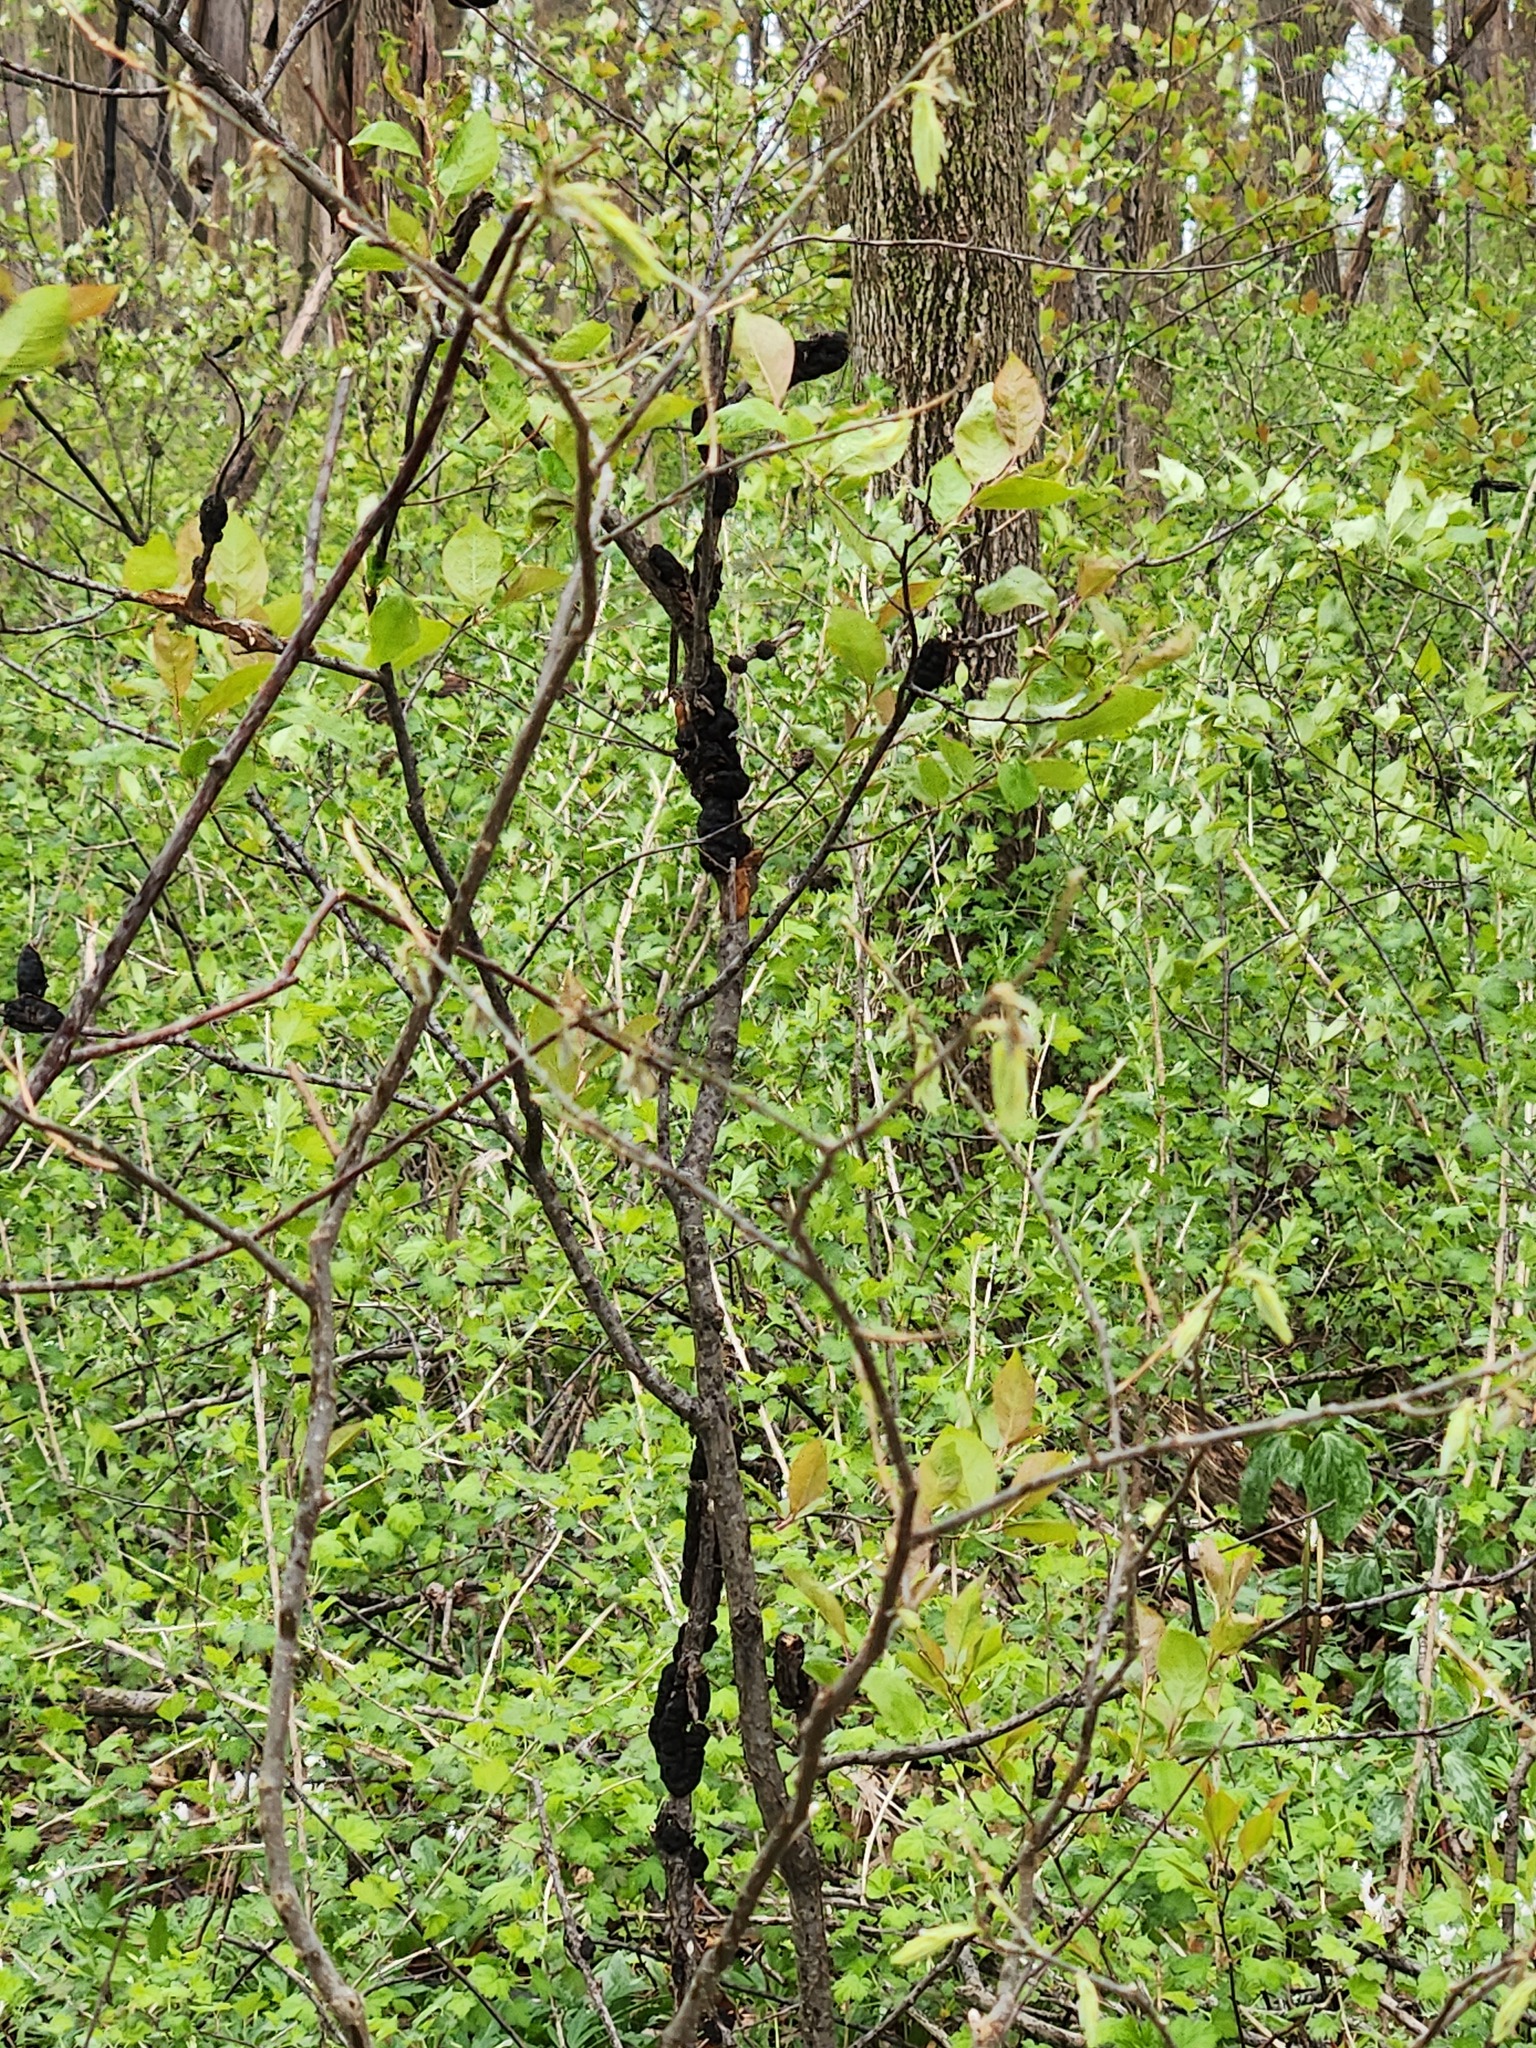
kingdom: Fungi
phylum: Ascomycota
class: Dothideomycetes
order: Venturiales
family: Venturiaceae
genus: Apiosporina
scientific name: Apiosporina morbosa
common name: Black knot
